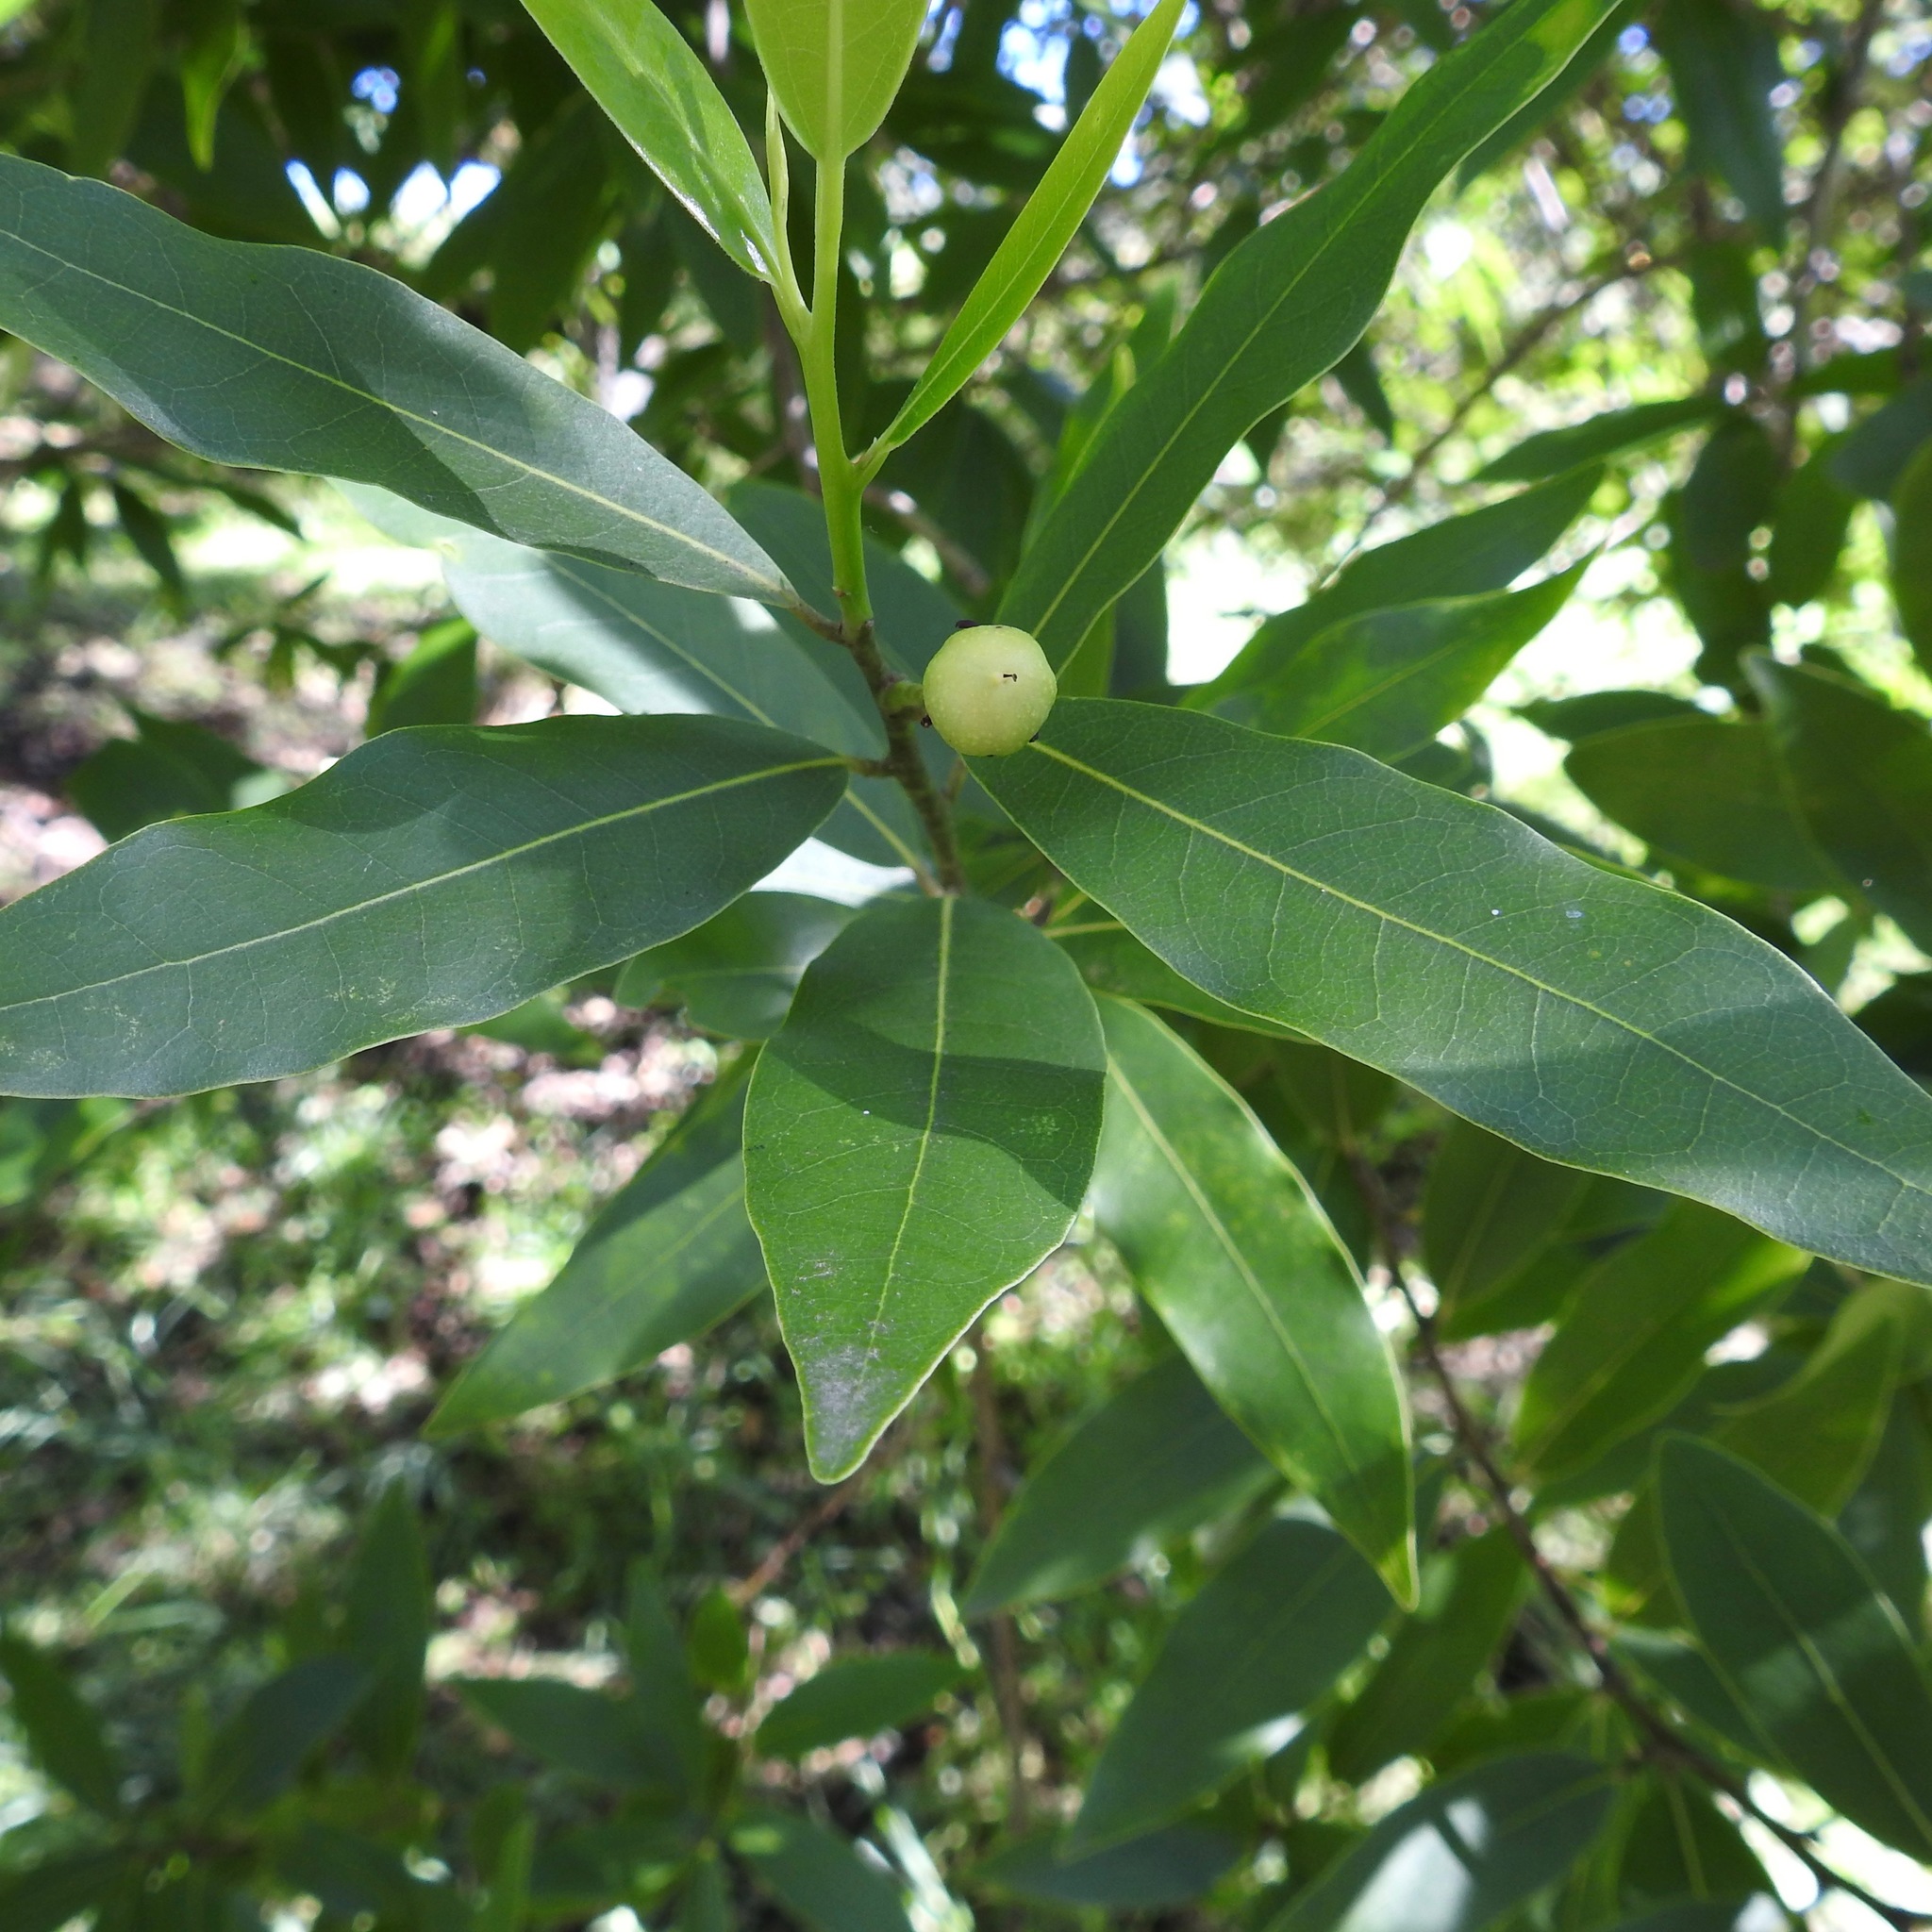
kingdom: Plantae
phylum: Tracheophyta
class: Magnoliopsida
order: Laurales
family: Lauraceae
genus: Umbellularia
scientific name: Umbellularia californica
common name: California bay
